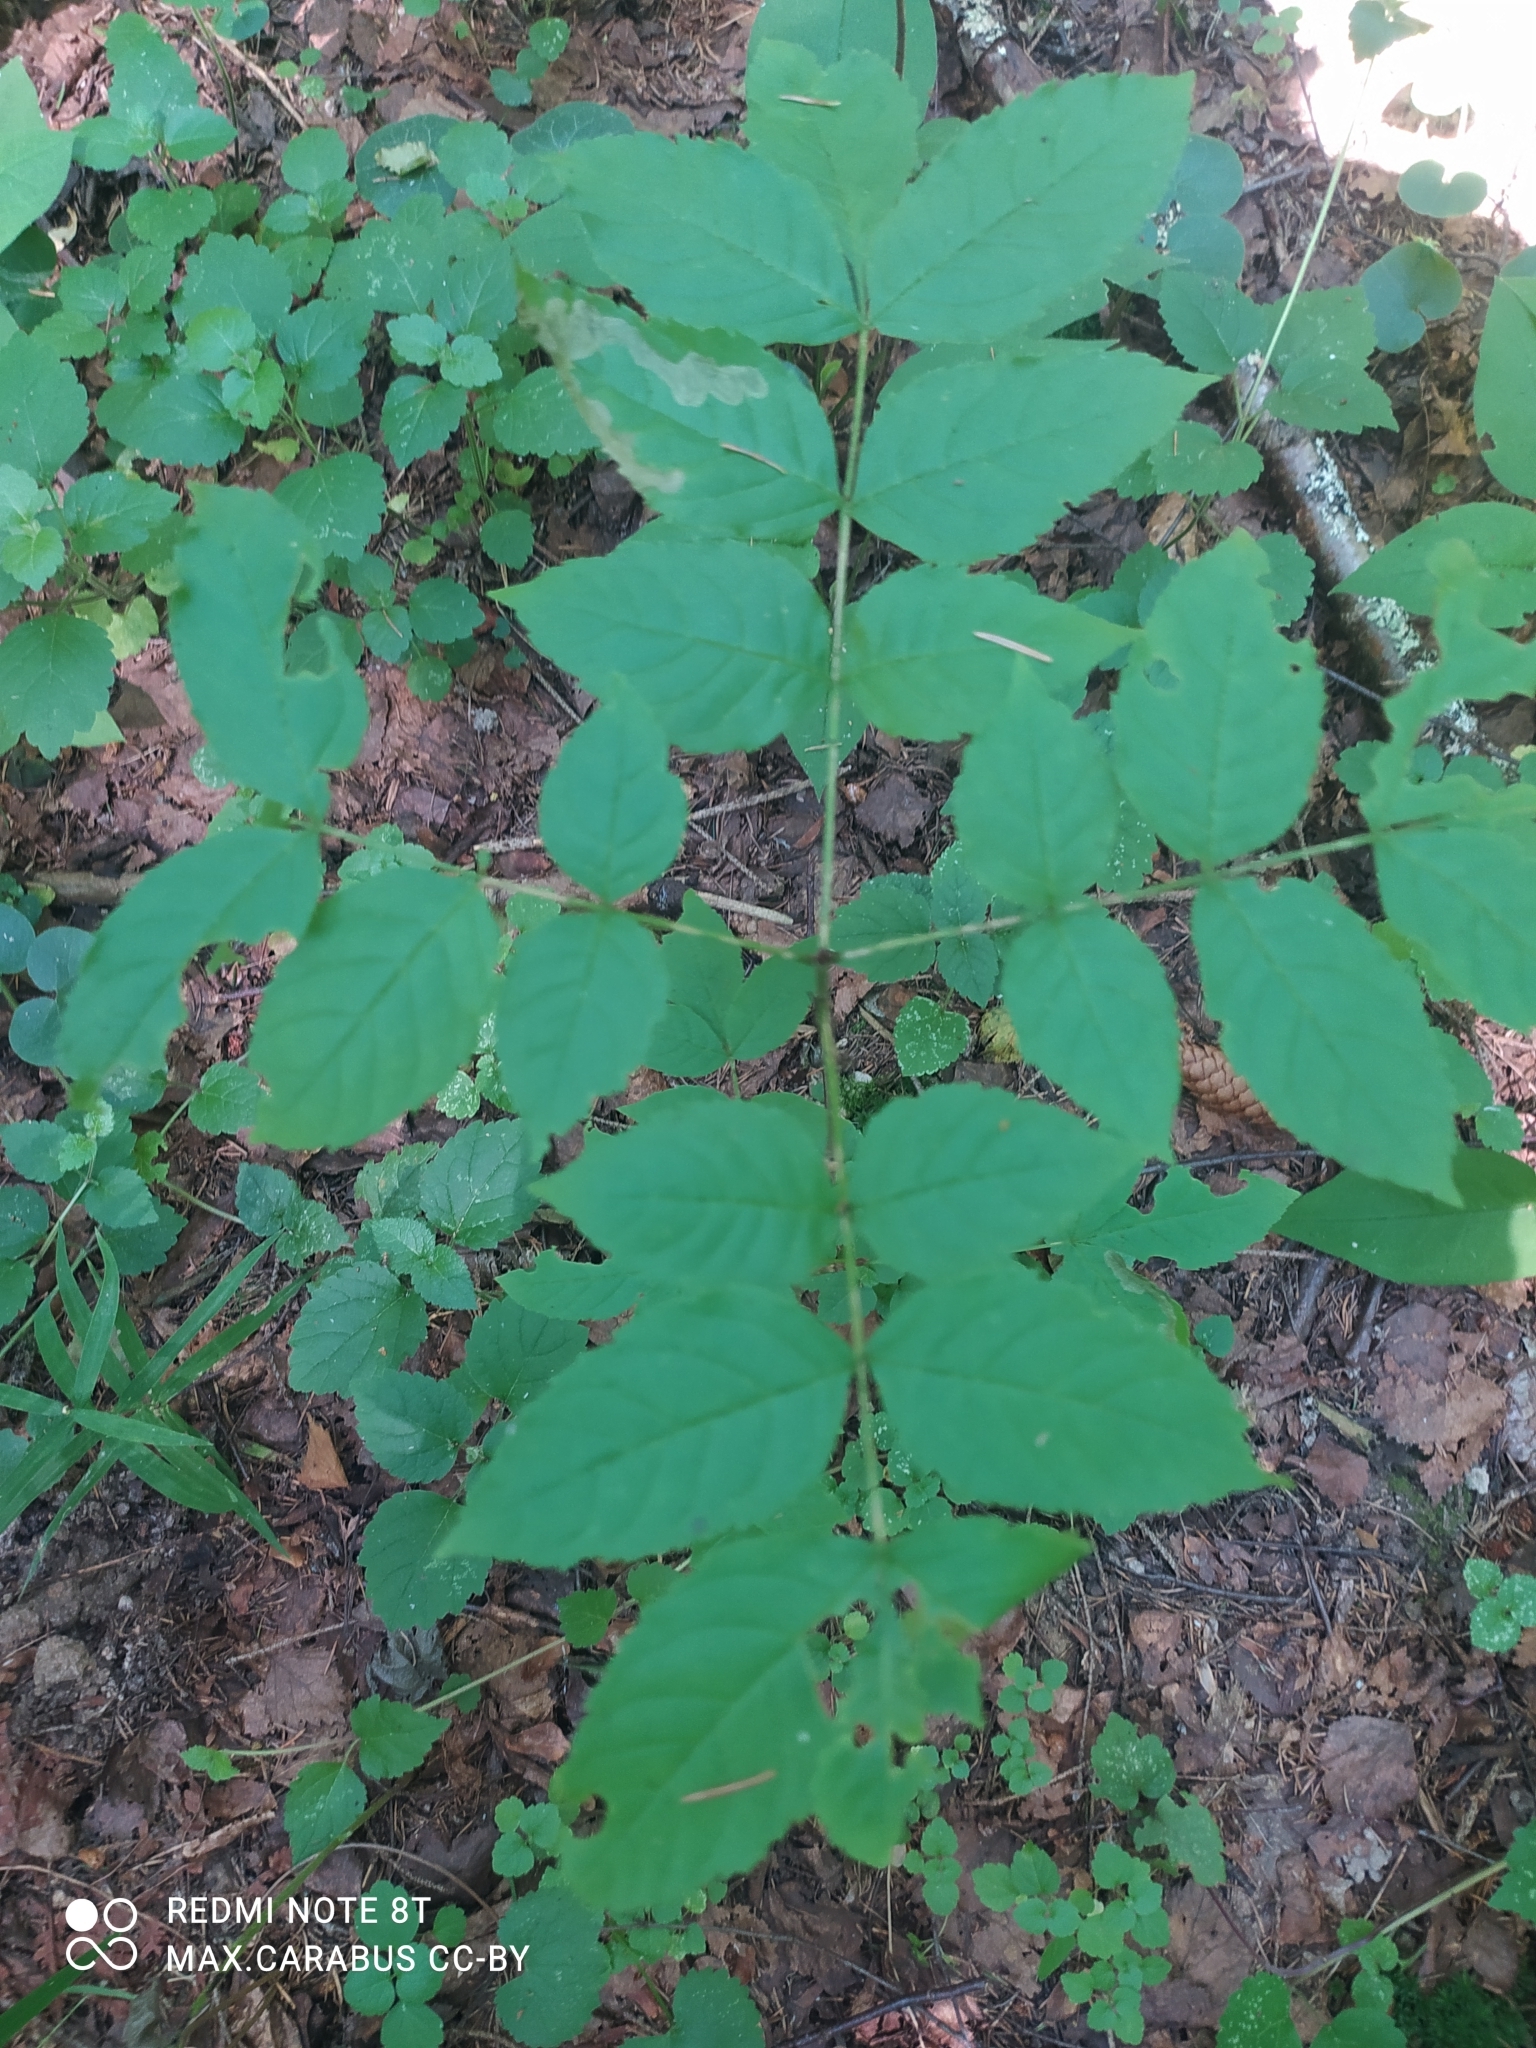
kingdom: Plantae
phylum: Tracheophyta
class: Magnoliopsida
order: Lamiales
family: Oleaceae
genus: Fraxinus
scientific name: Fraxinus excelsior
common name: European ash
